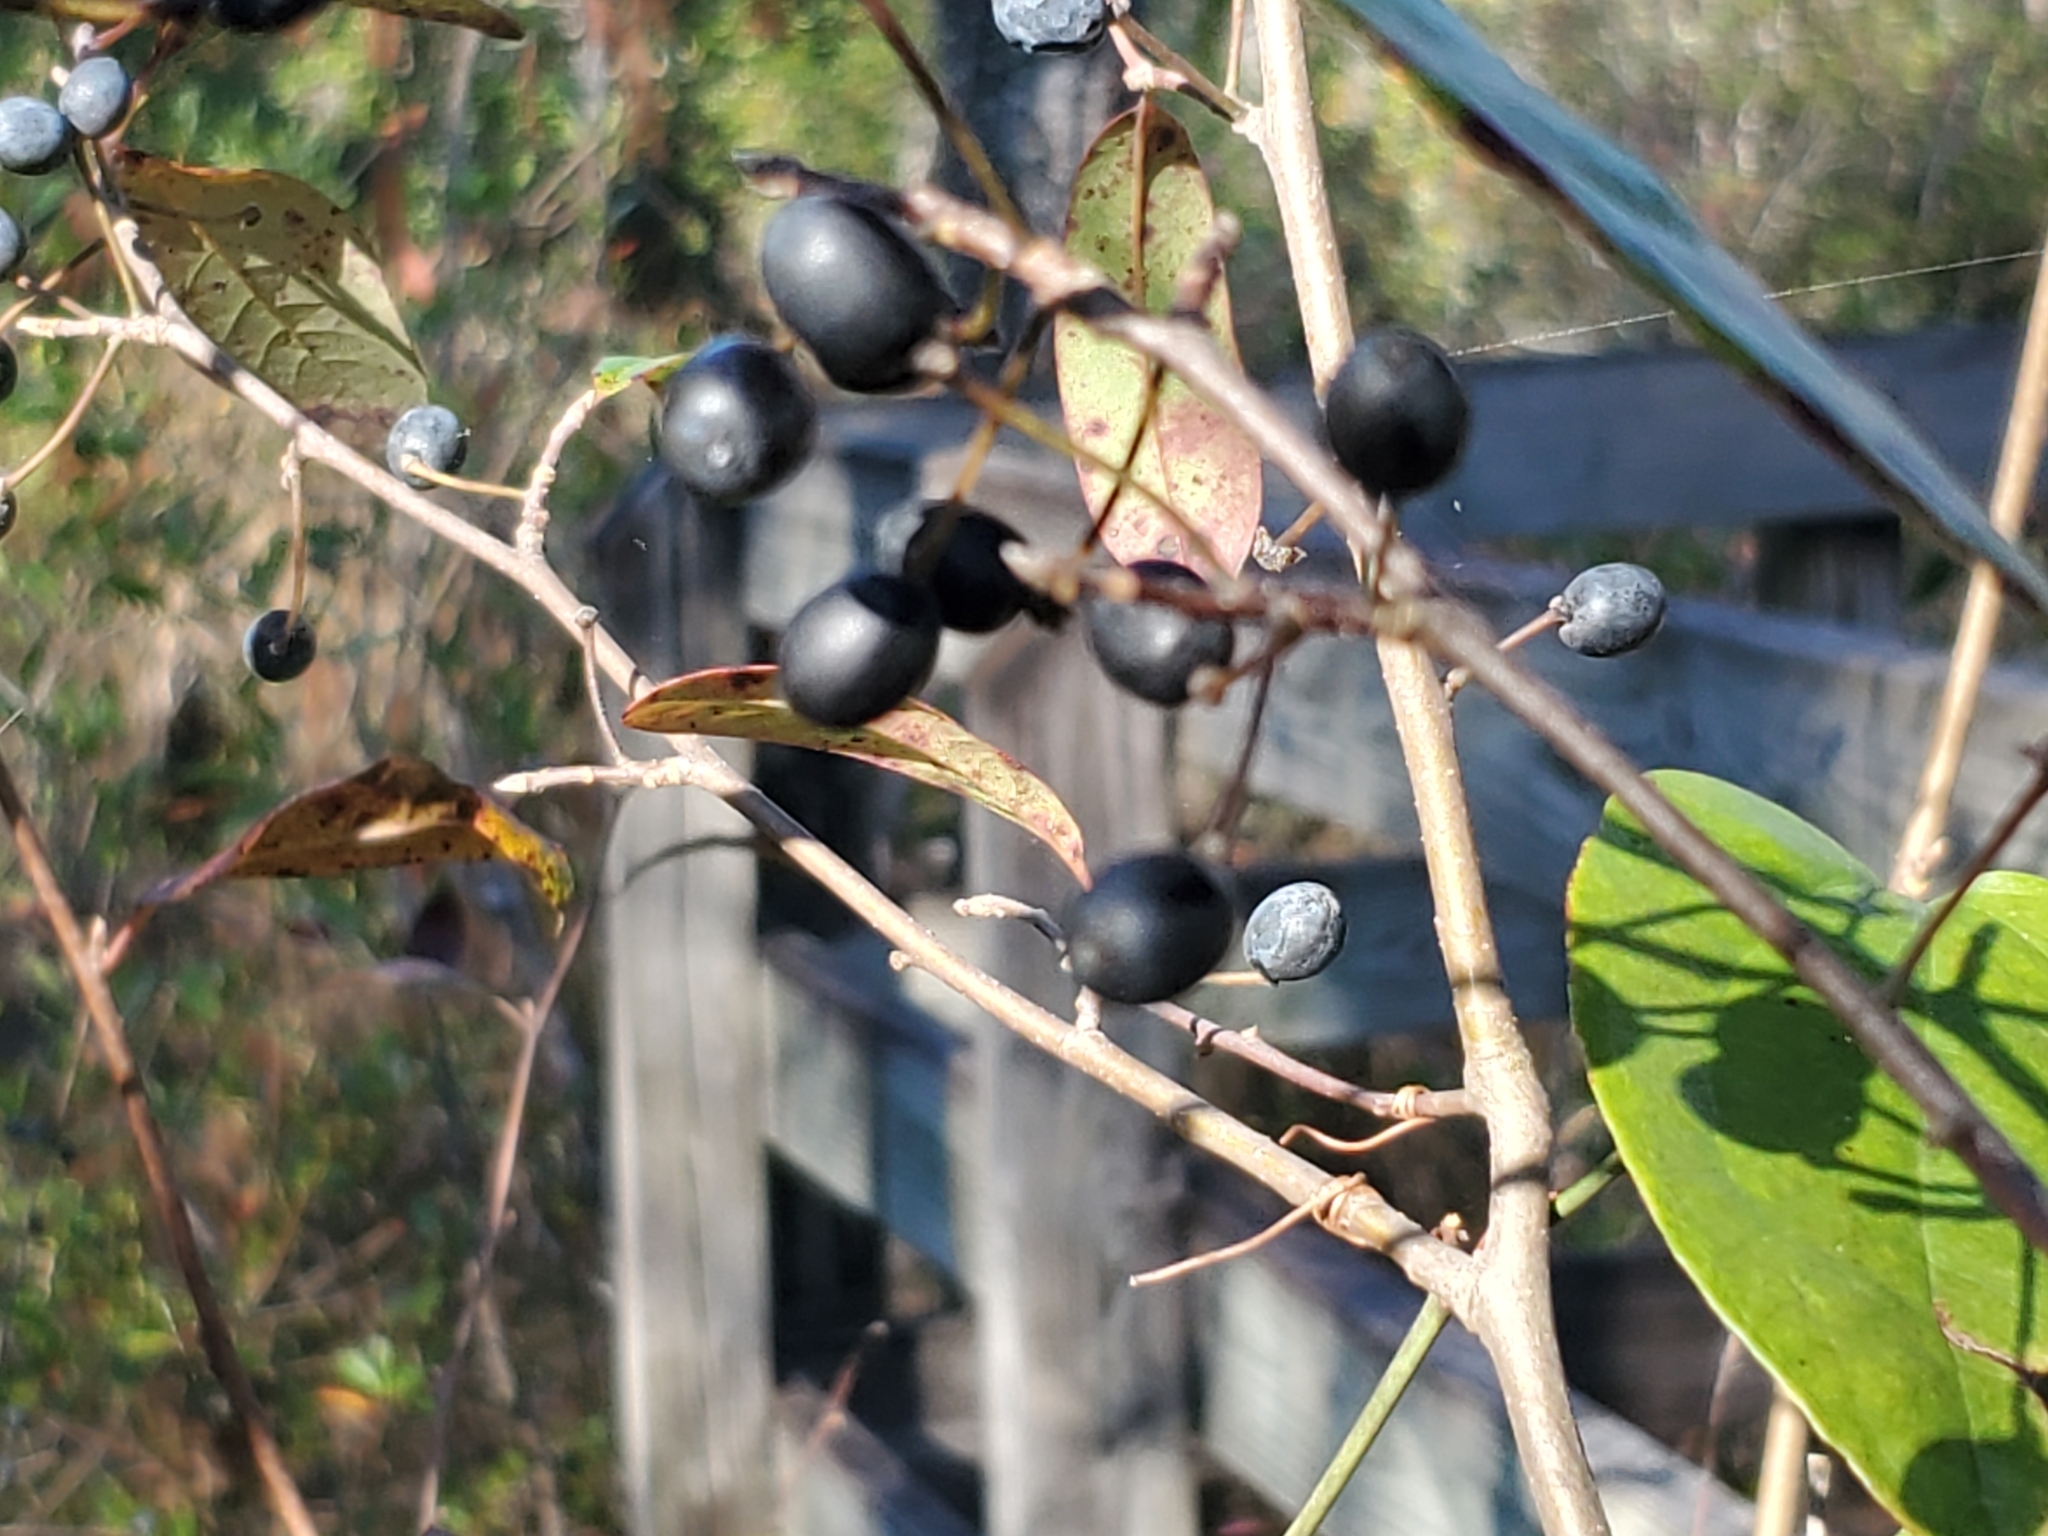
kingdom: Plantae
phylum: Tracheophyta
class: Magnoliopsida
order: Cornales
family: Nyssaceae
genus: Nyssa
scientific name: Nyssa biflora
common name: Swamp blackgum
